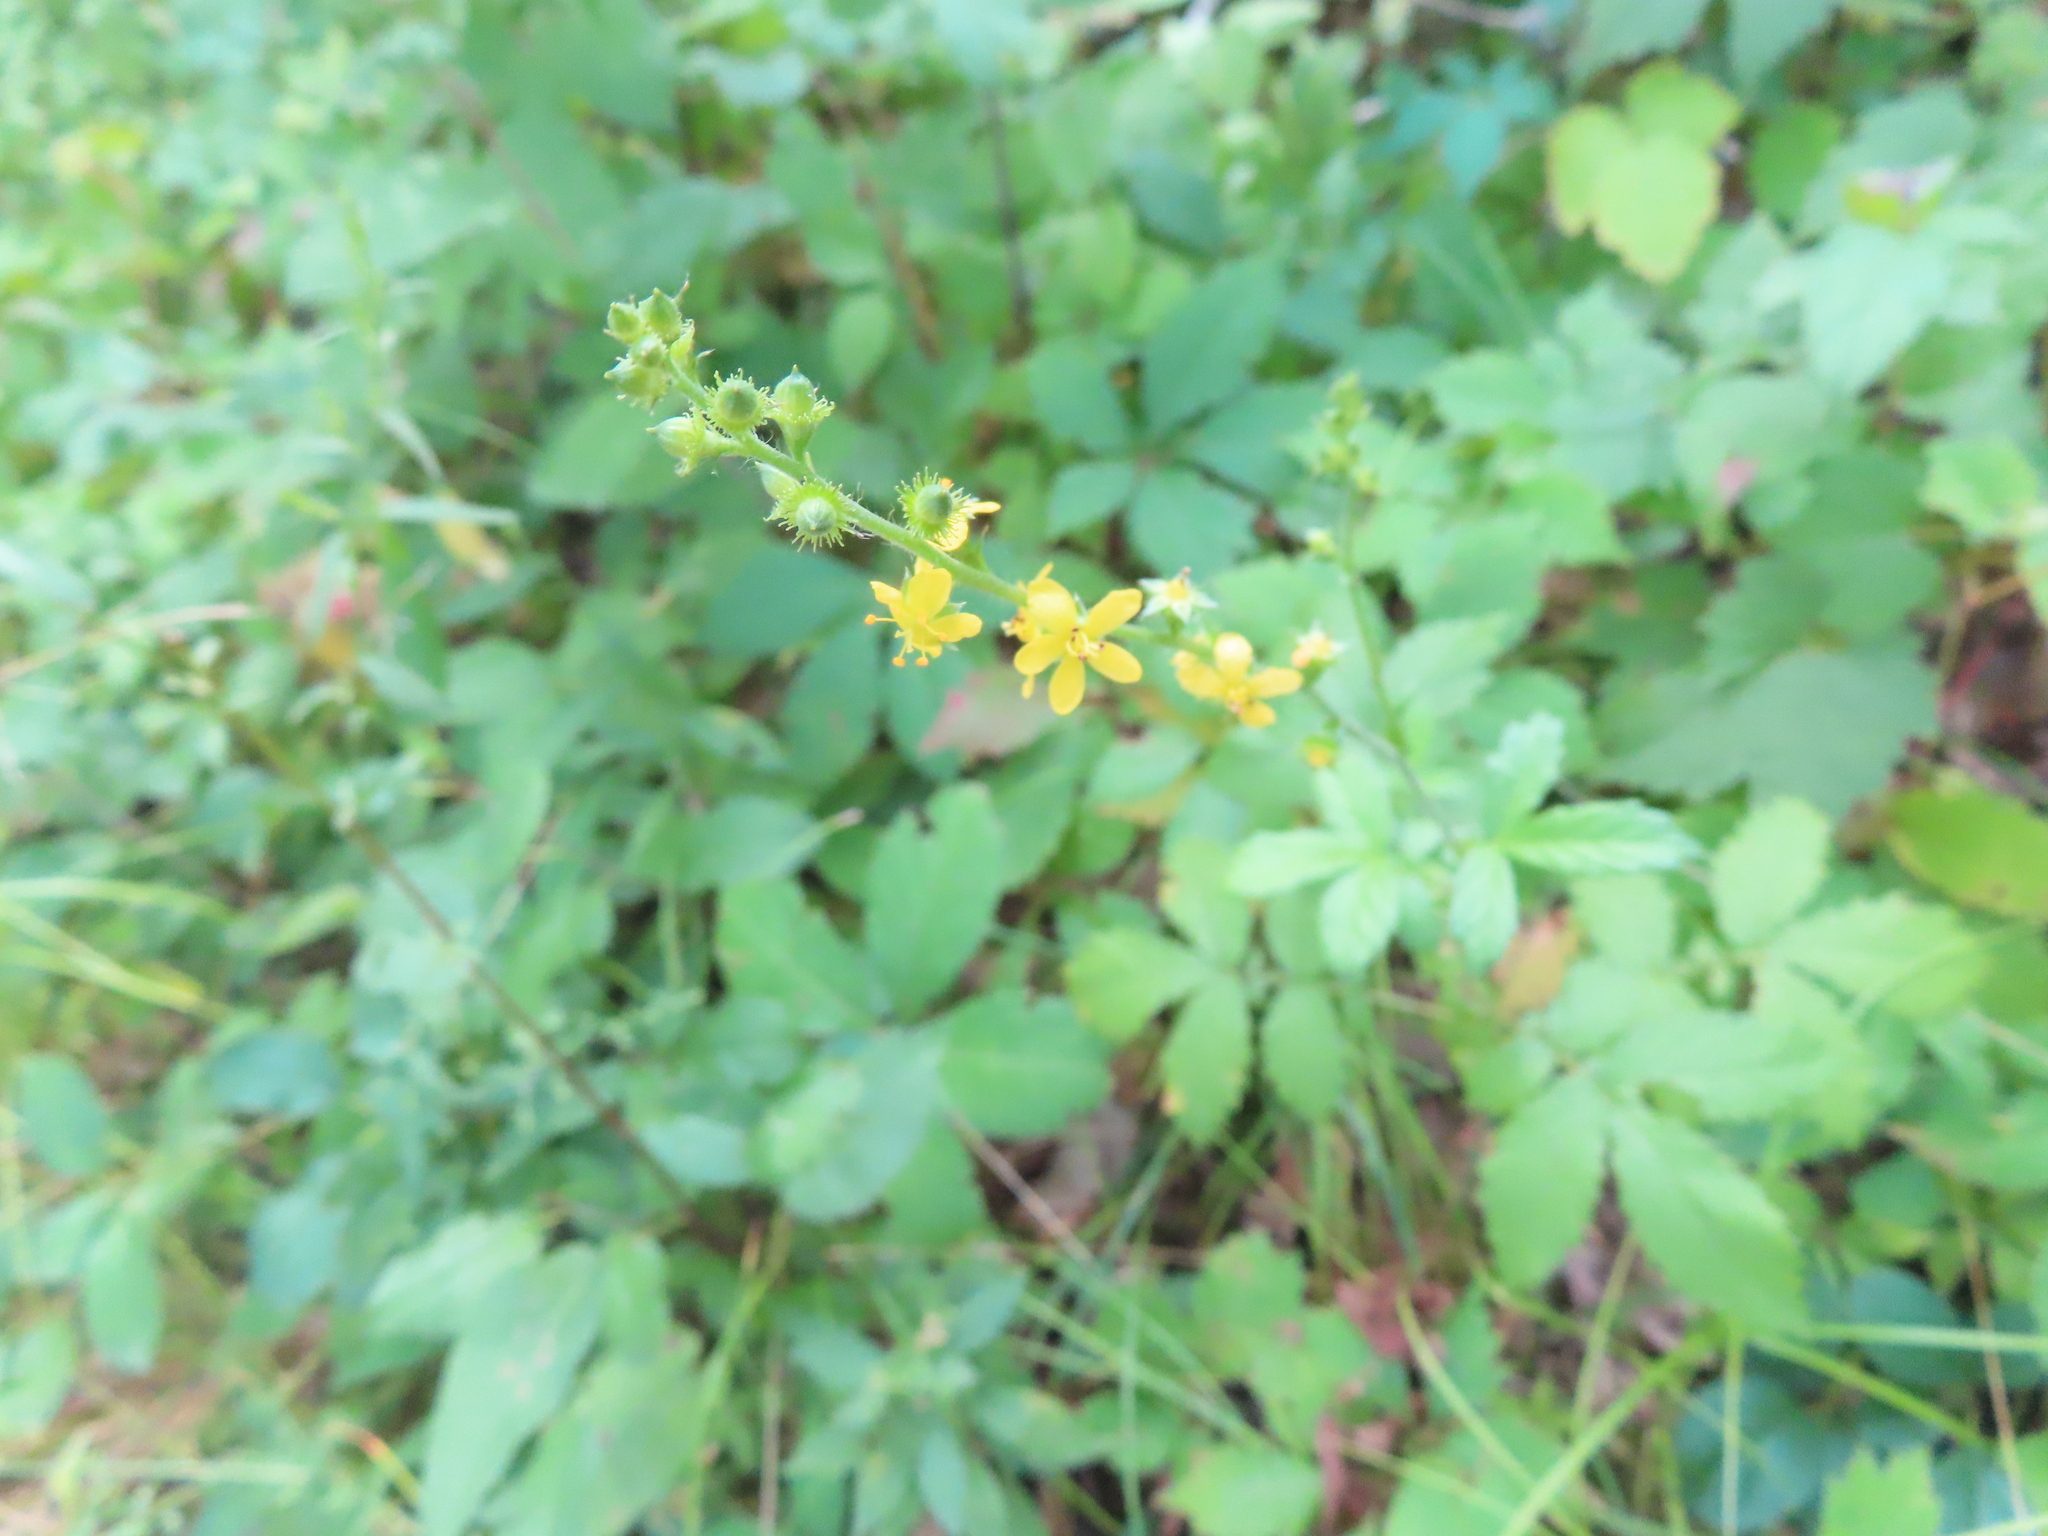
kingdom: Plantae
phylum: Tracheophyta
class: Magnoliopsida
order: Rosales
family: Rosaceae
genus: Agrimonia
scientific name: Agrimonia gryposepala
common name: Common agrimony
